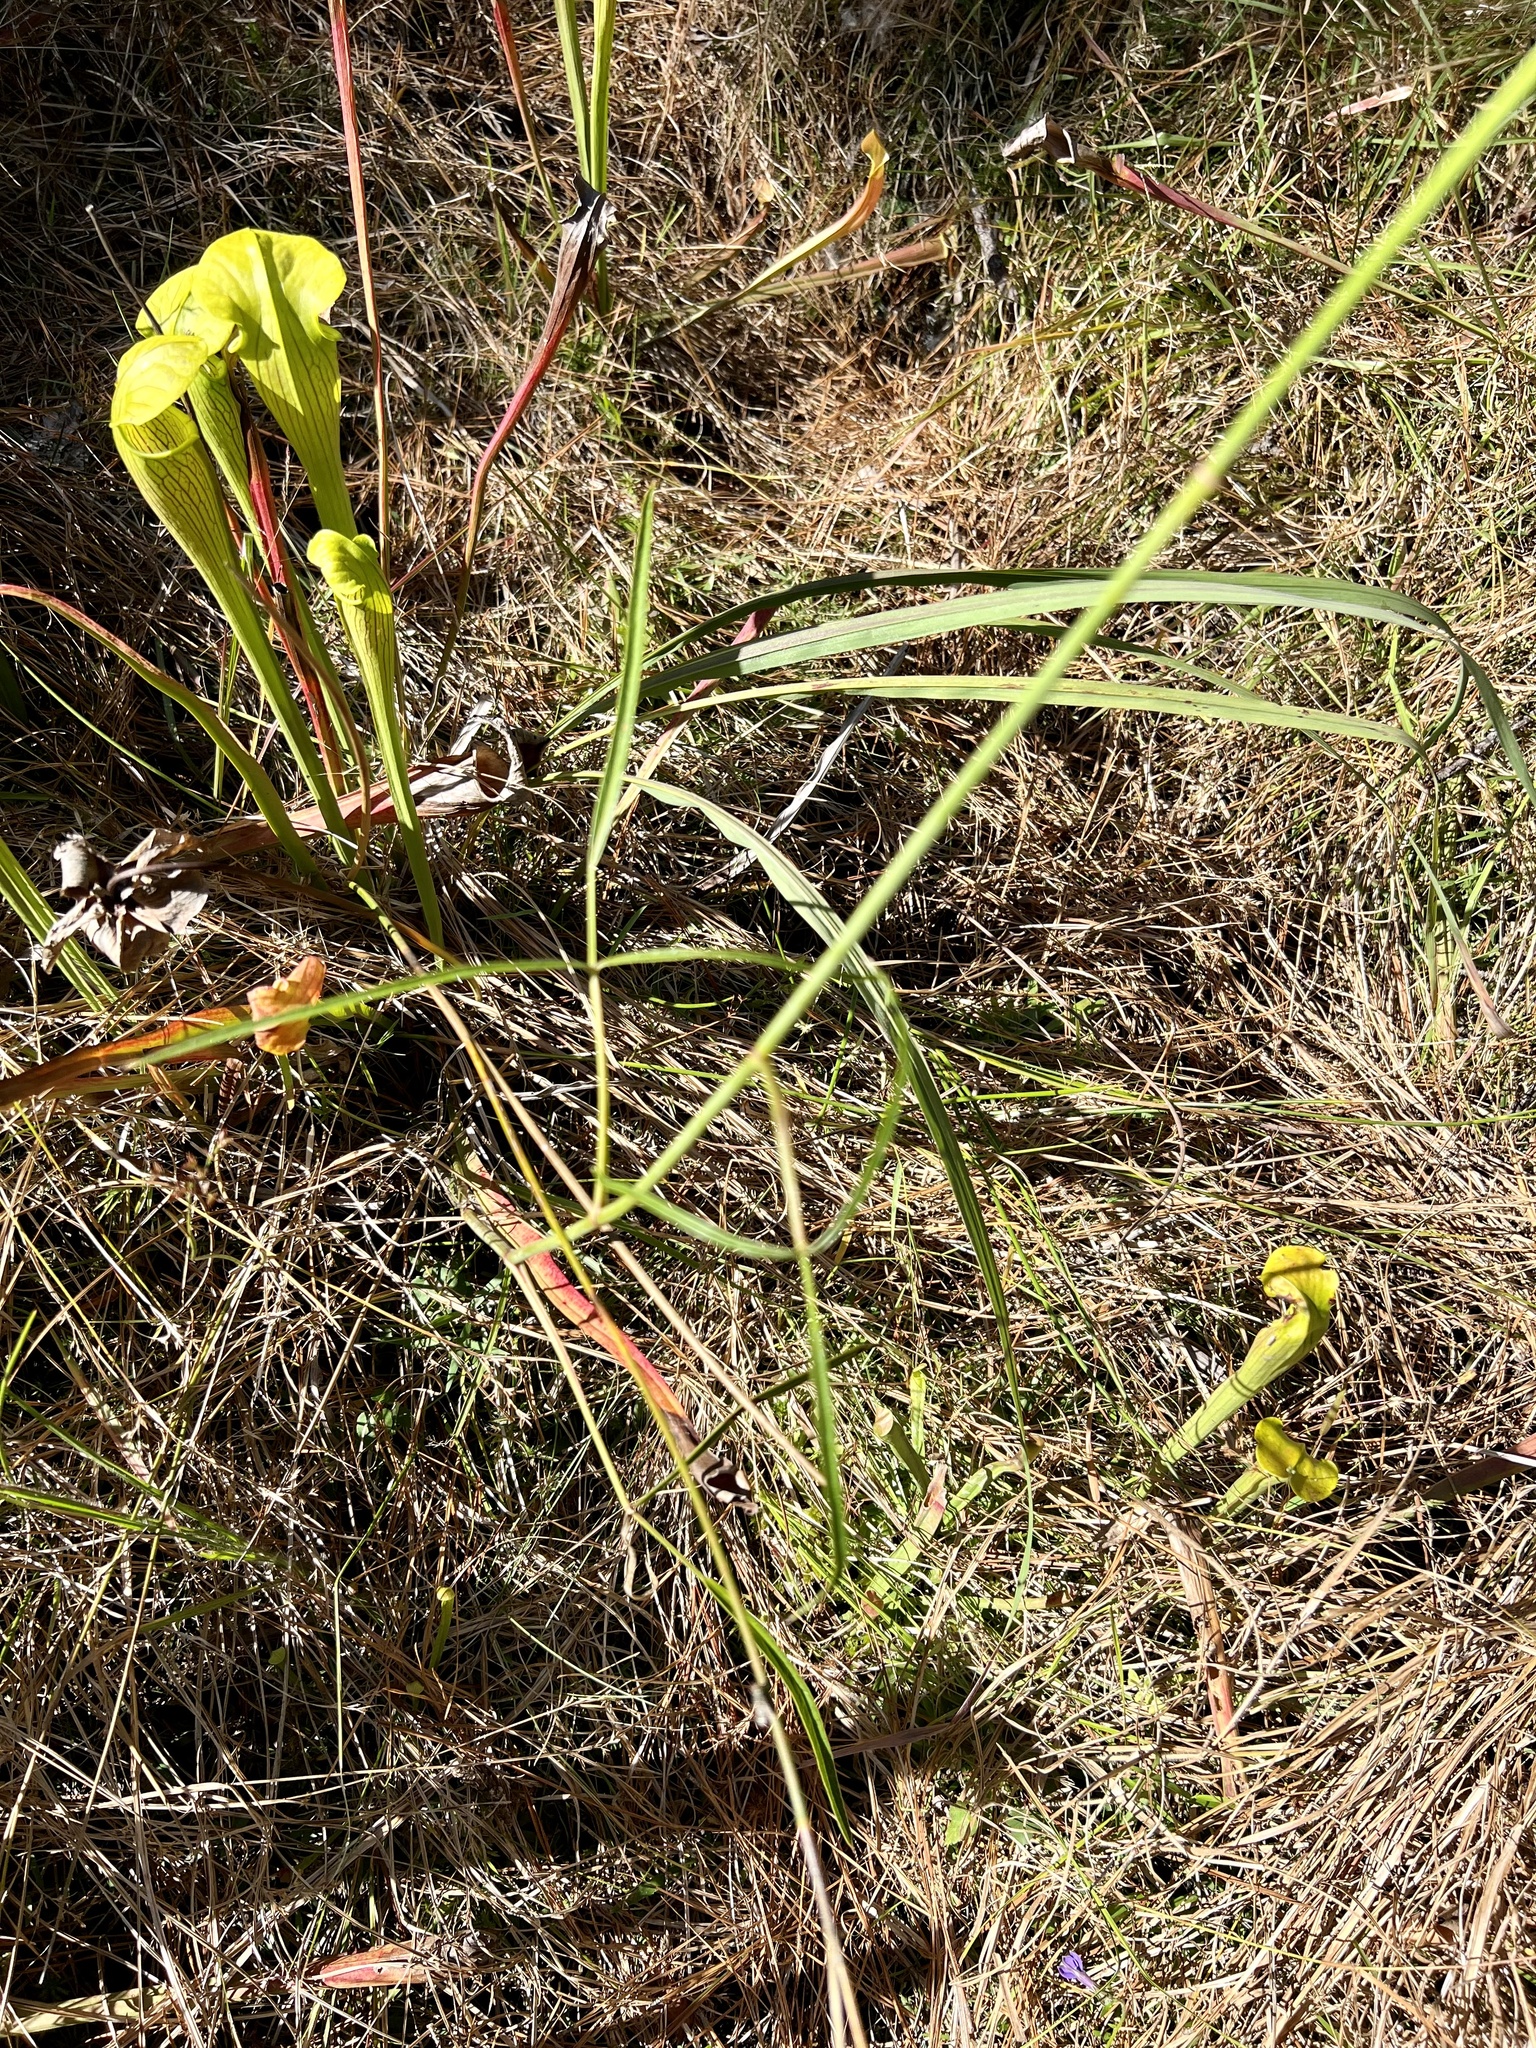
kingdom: Plantae
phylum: Tracheophyta
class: Magnoliopsida
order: Apiales
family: Apiaceae
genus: Oxypolis
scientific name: Oxypolis rigidior
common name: Cowbane
